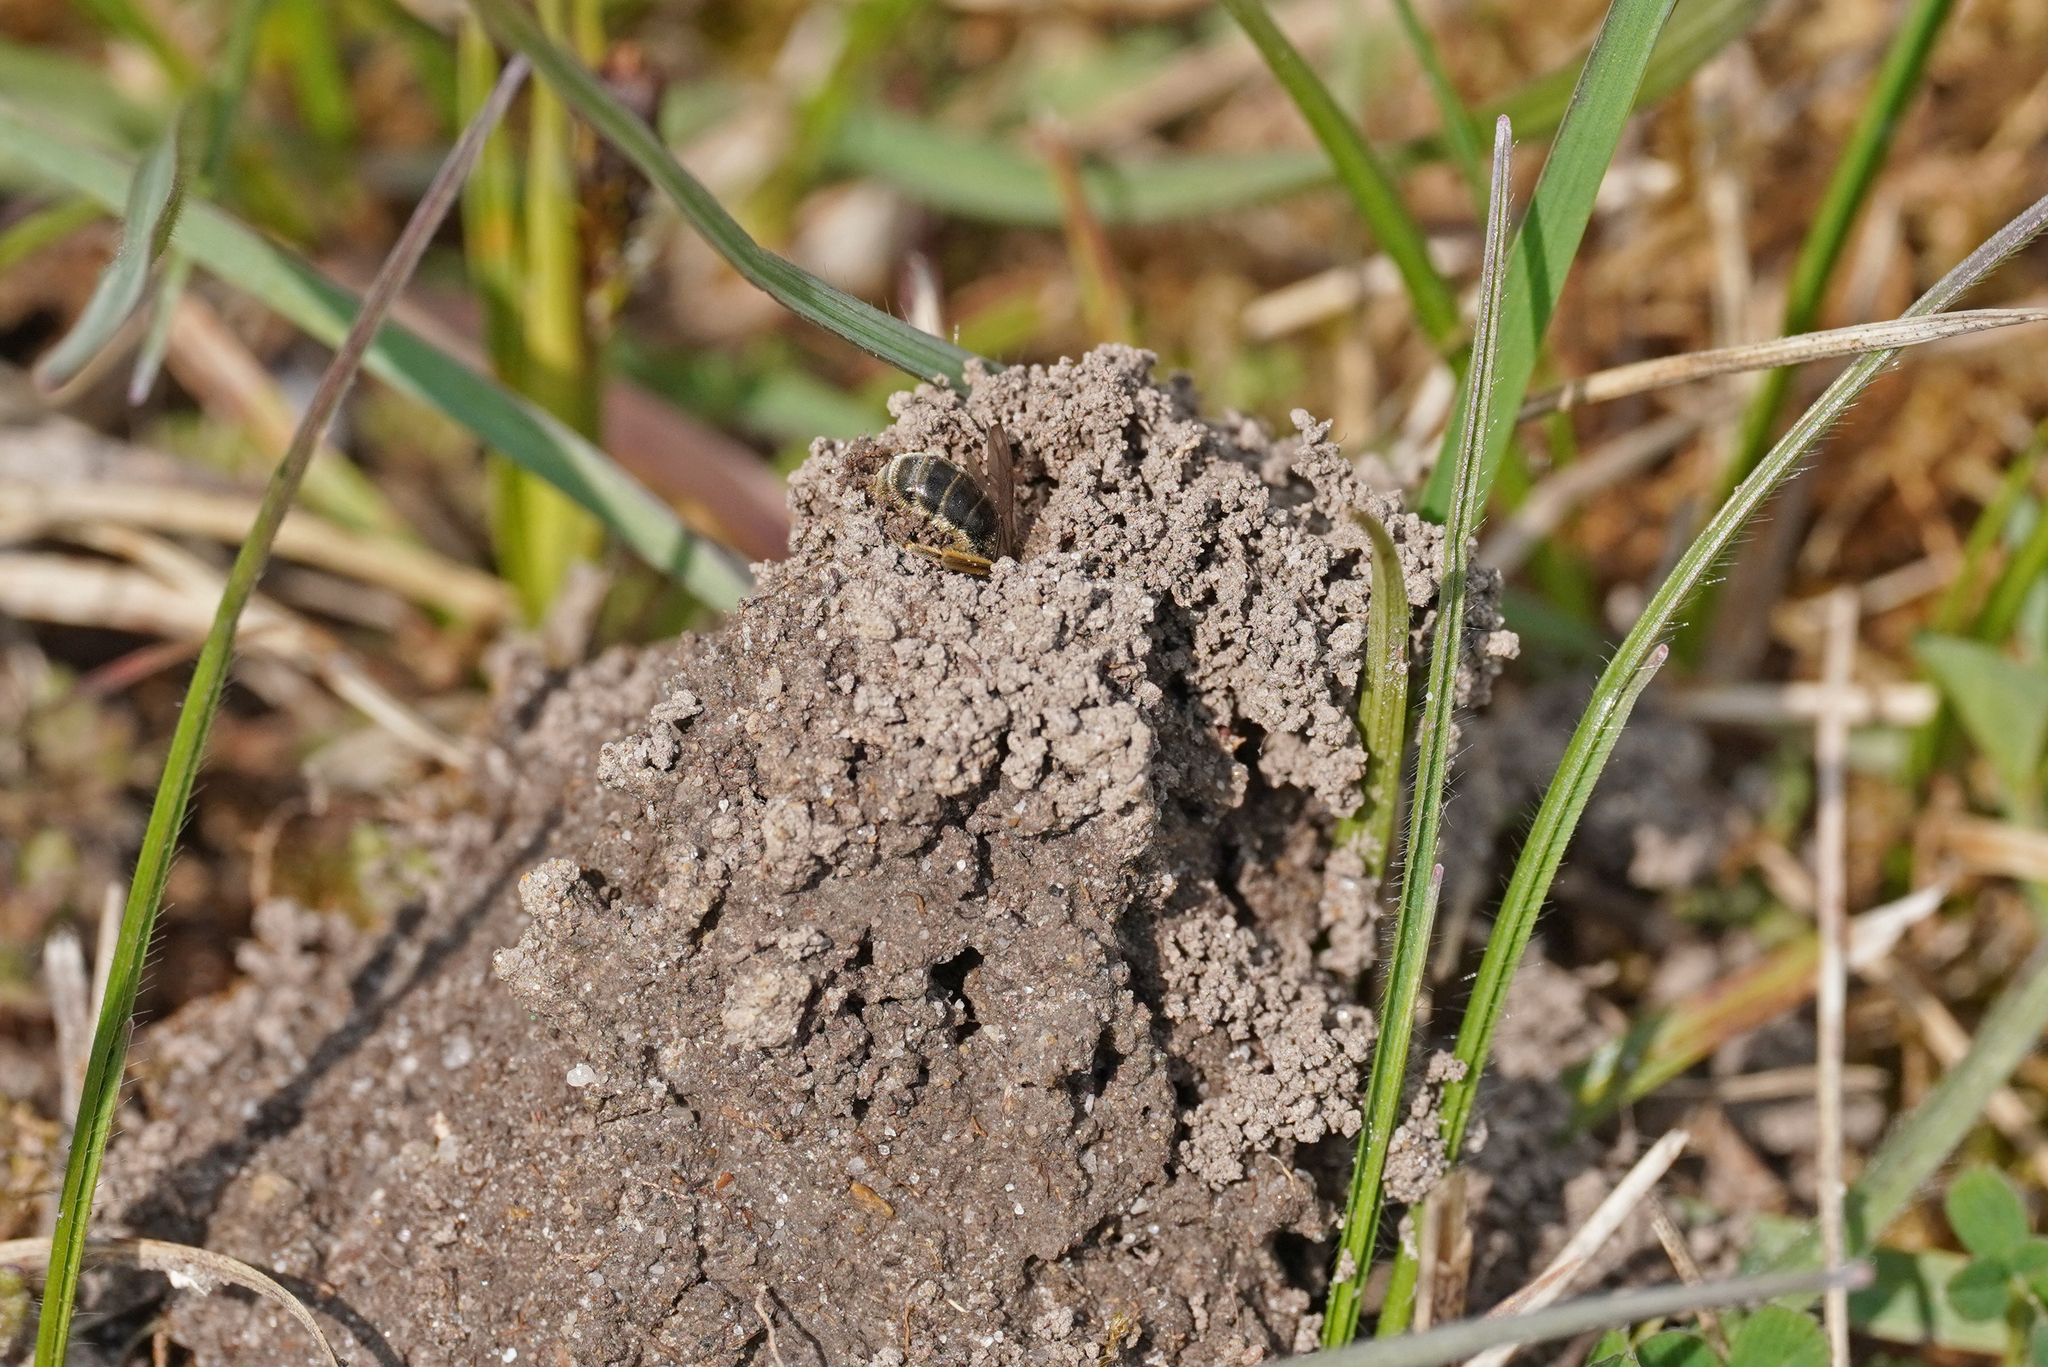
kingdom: Animalia
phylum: Arthropoda
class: Insecta
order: Hymenoptera
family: Halictidae
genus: Lasioglossum
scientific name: Lasioglossum marginatum
